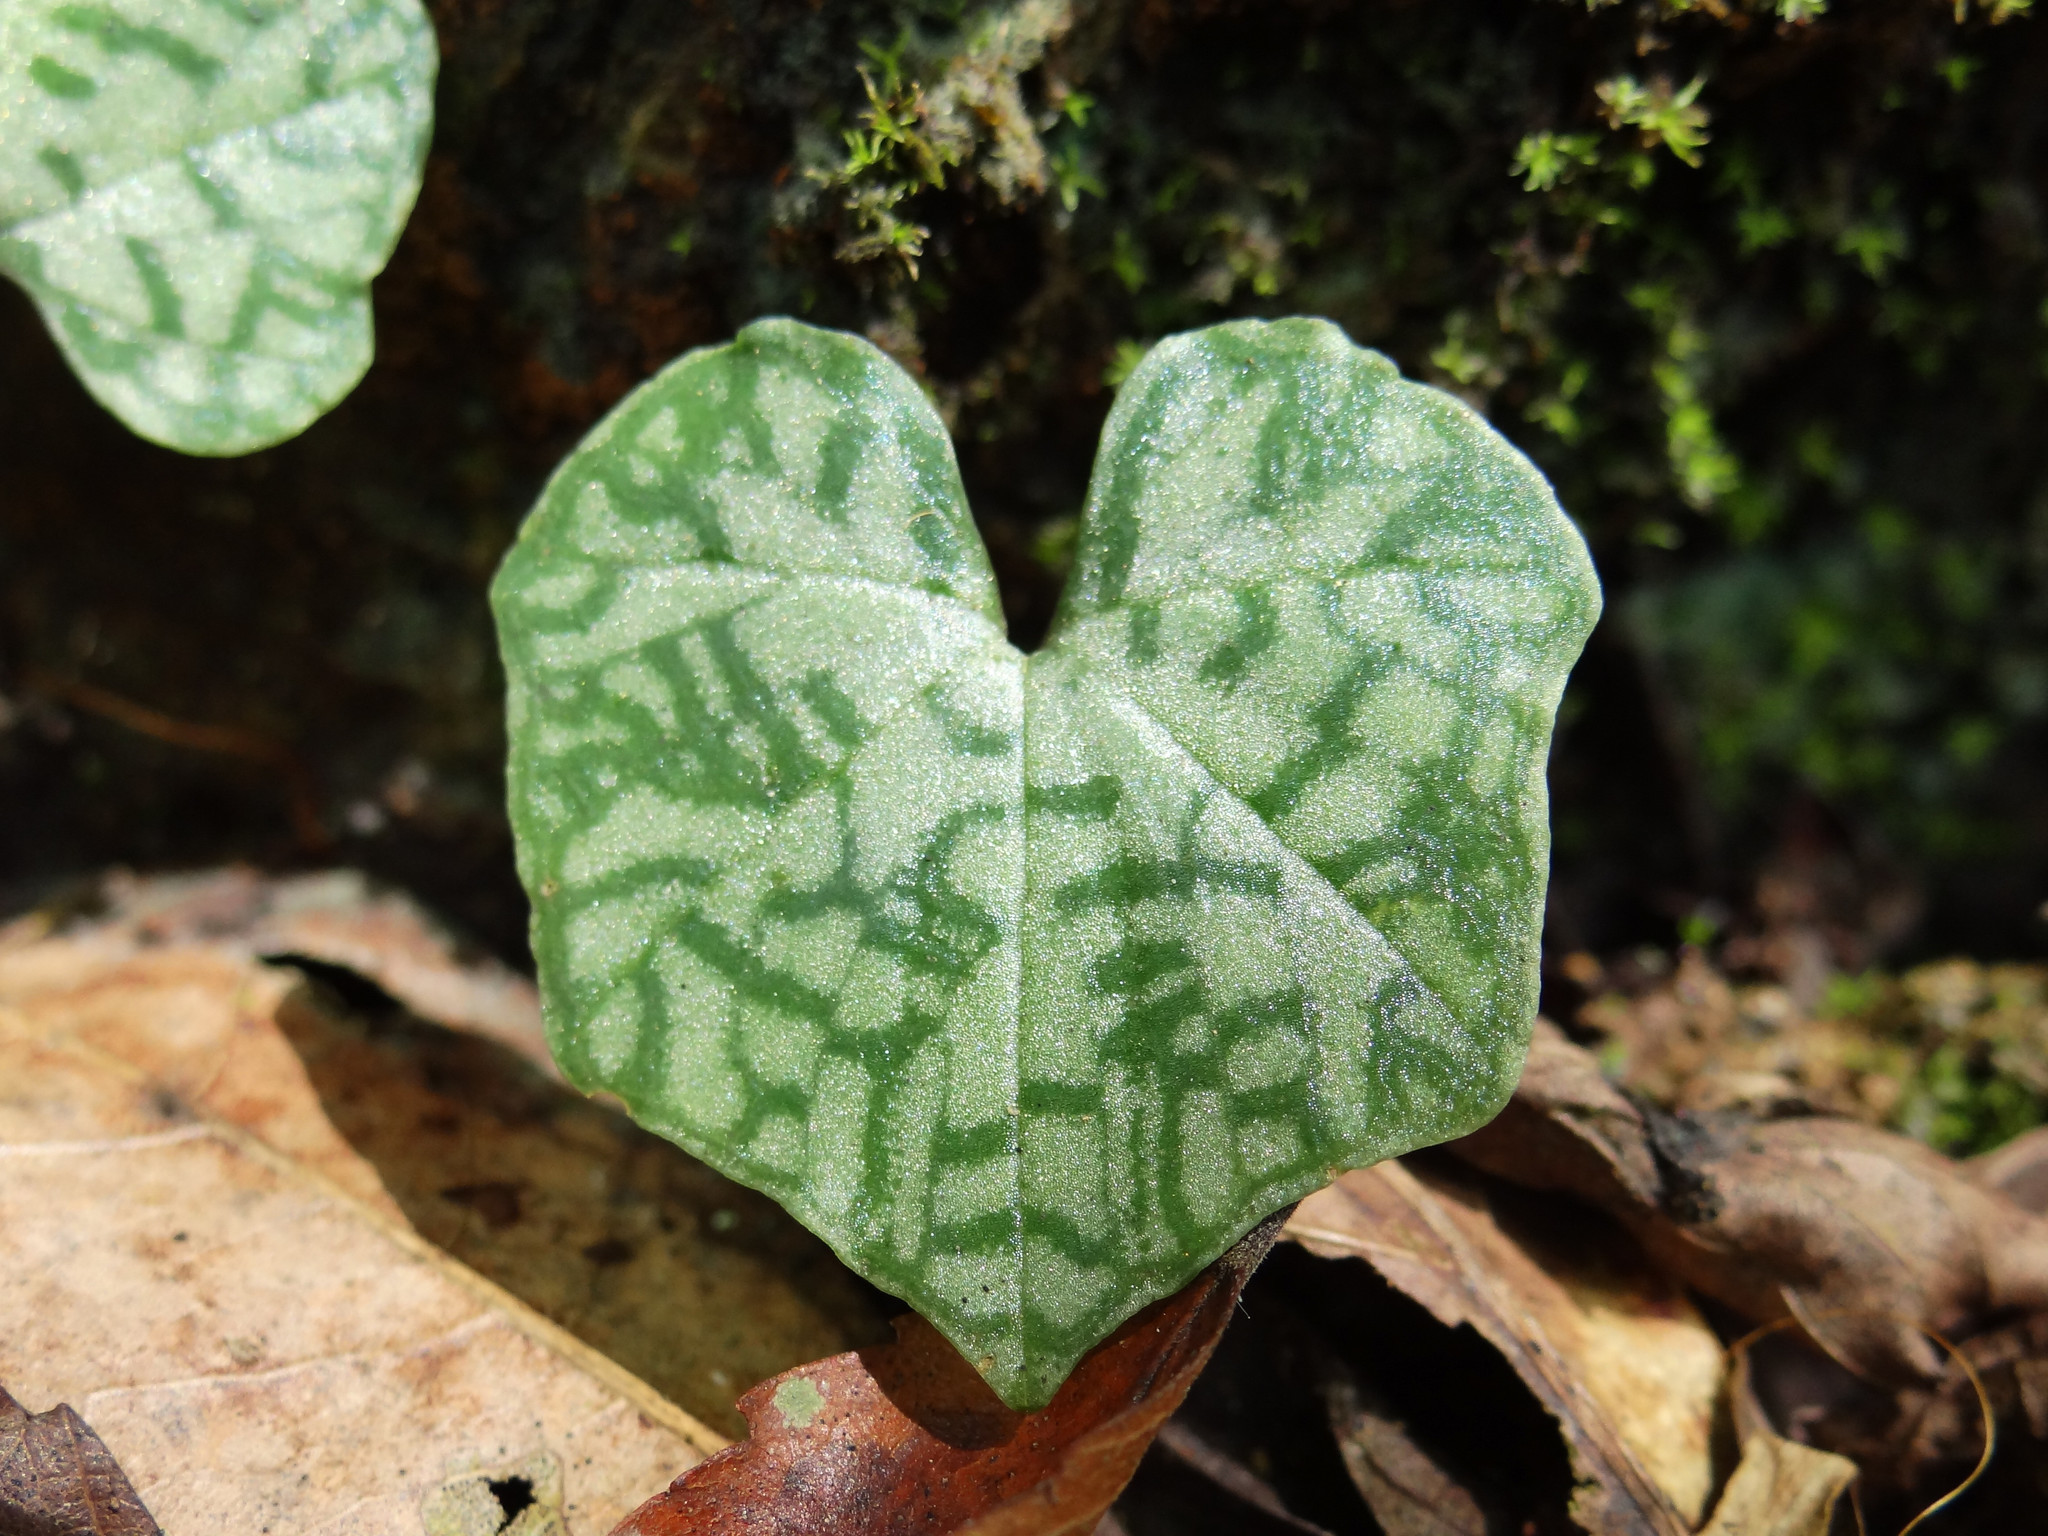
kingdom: Plantae
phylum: Tracheophyta
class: Liliopsida
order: Asparagales
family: Orchidaceae
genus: Nervilia
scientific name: Nervilia nipponica
